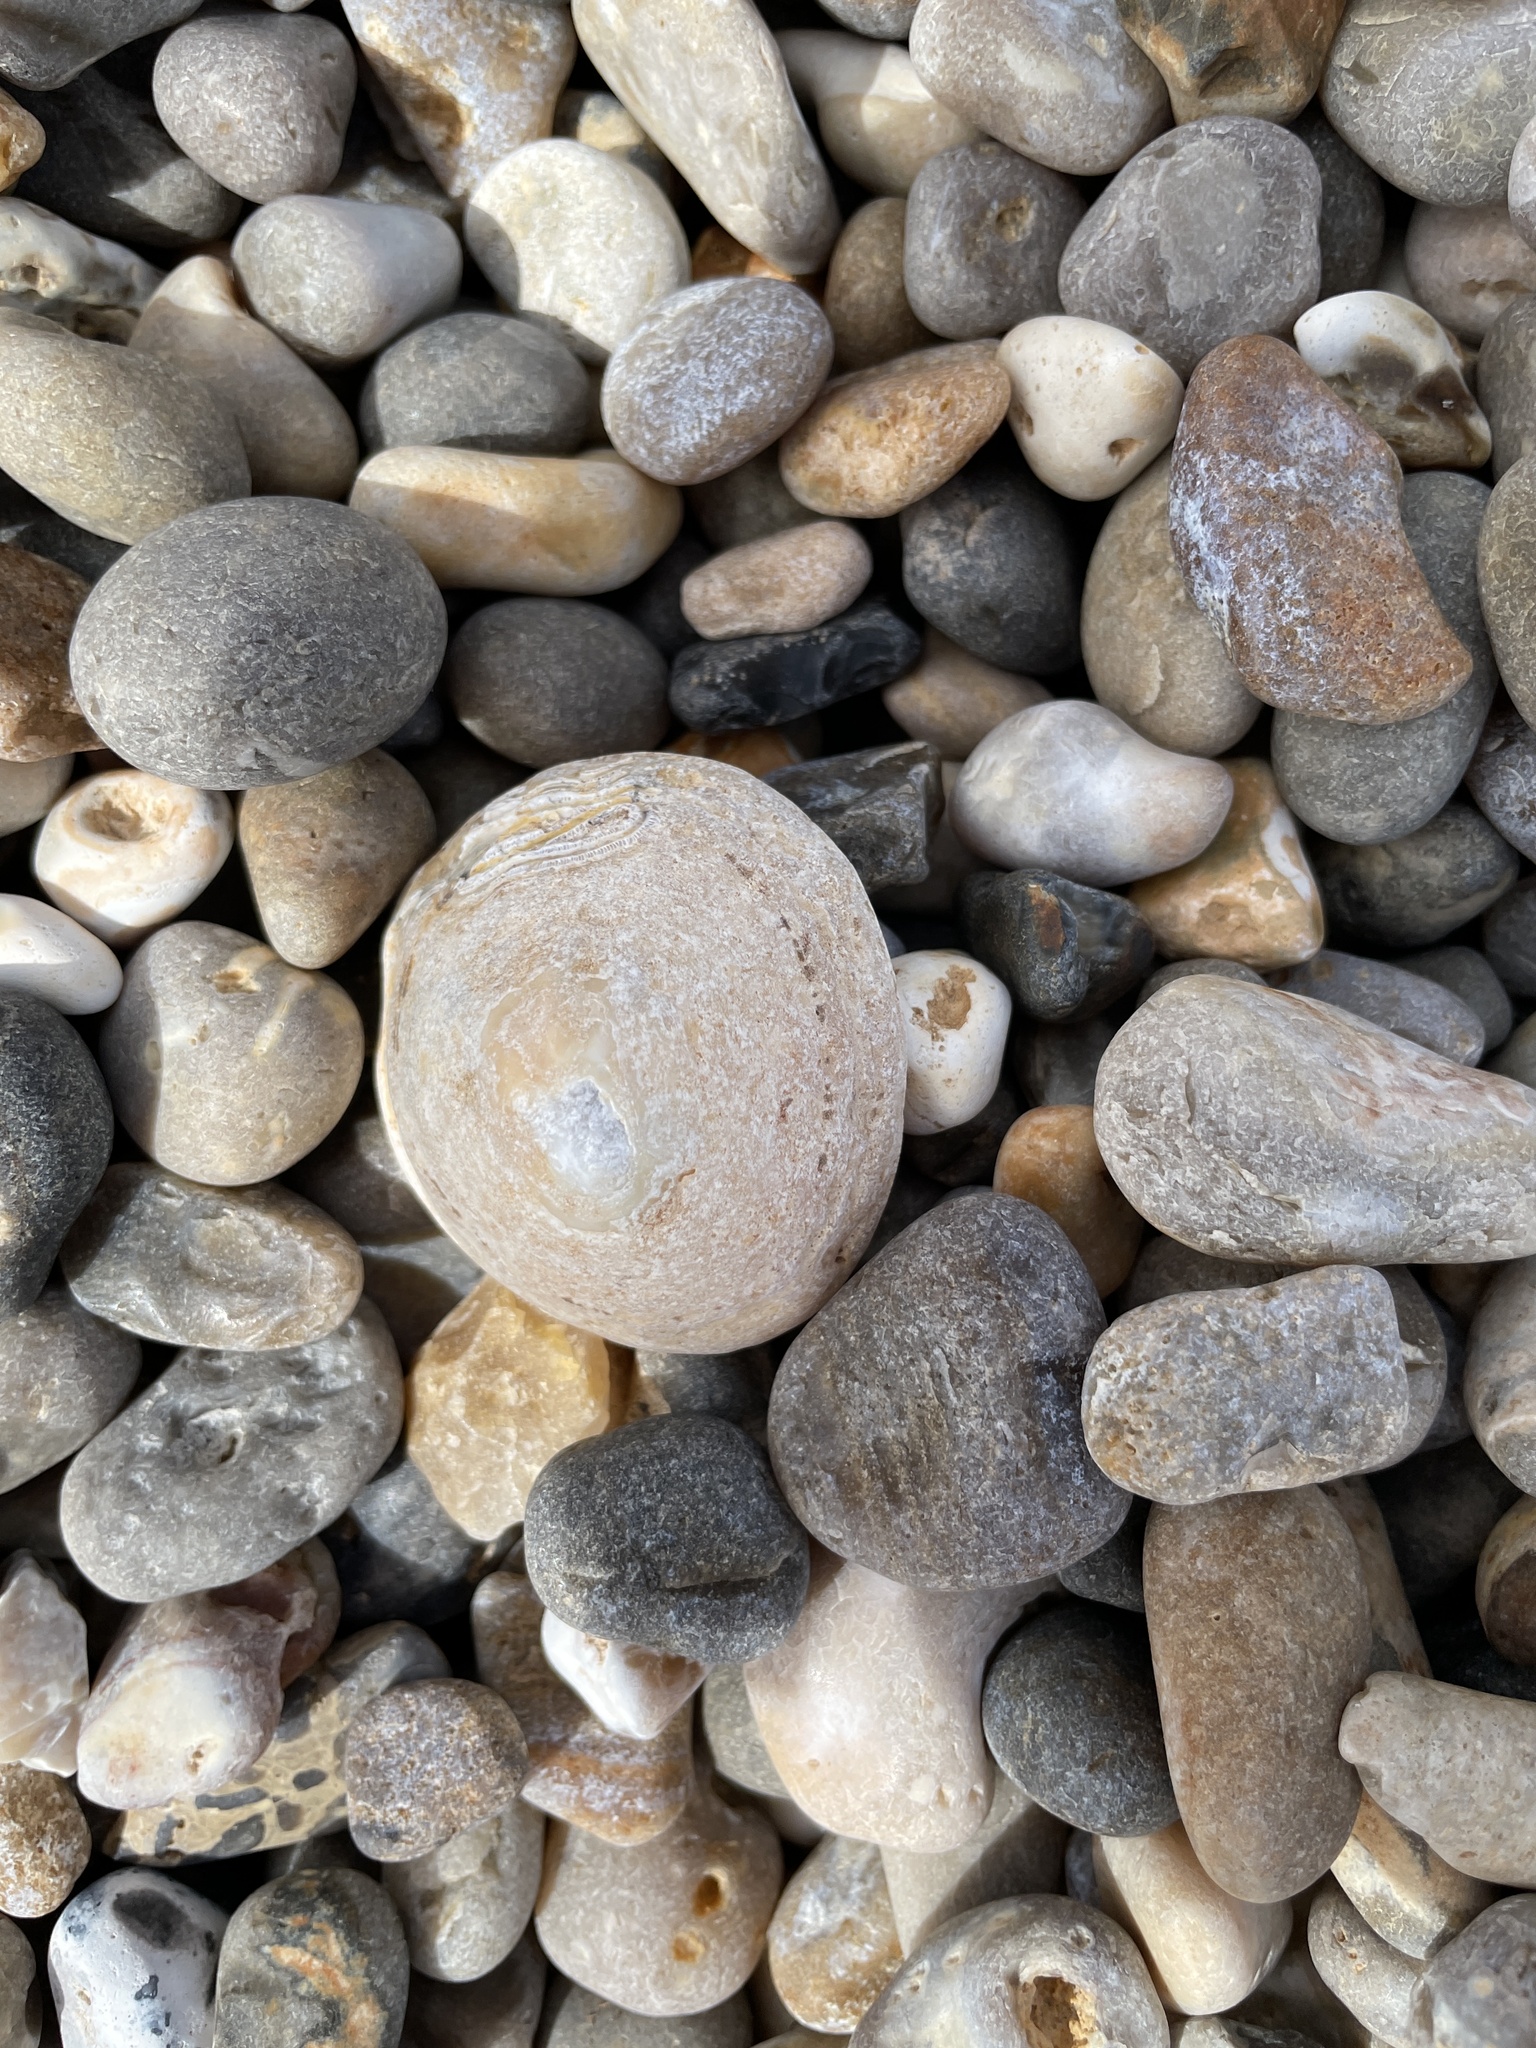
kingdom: Animalia
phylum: Mollusca
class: Gastropoda
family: Patellidae
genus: Patella
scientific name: Patella vulgata
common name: Common limpet
